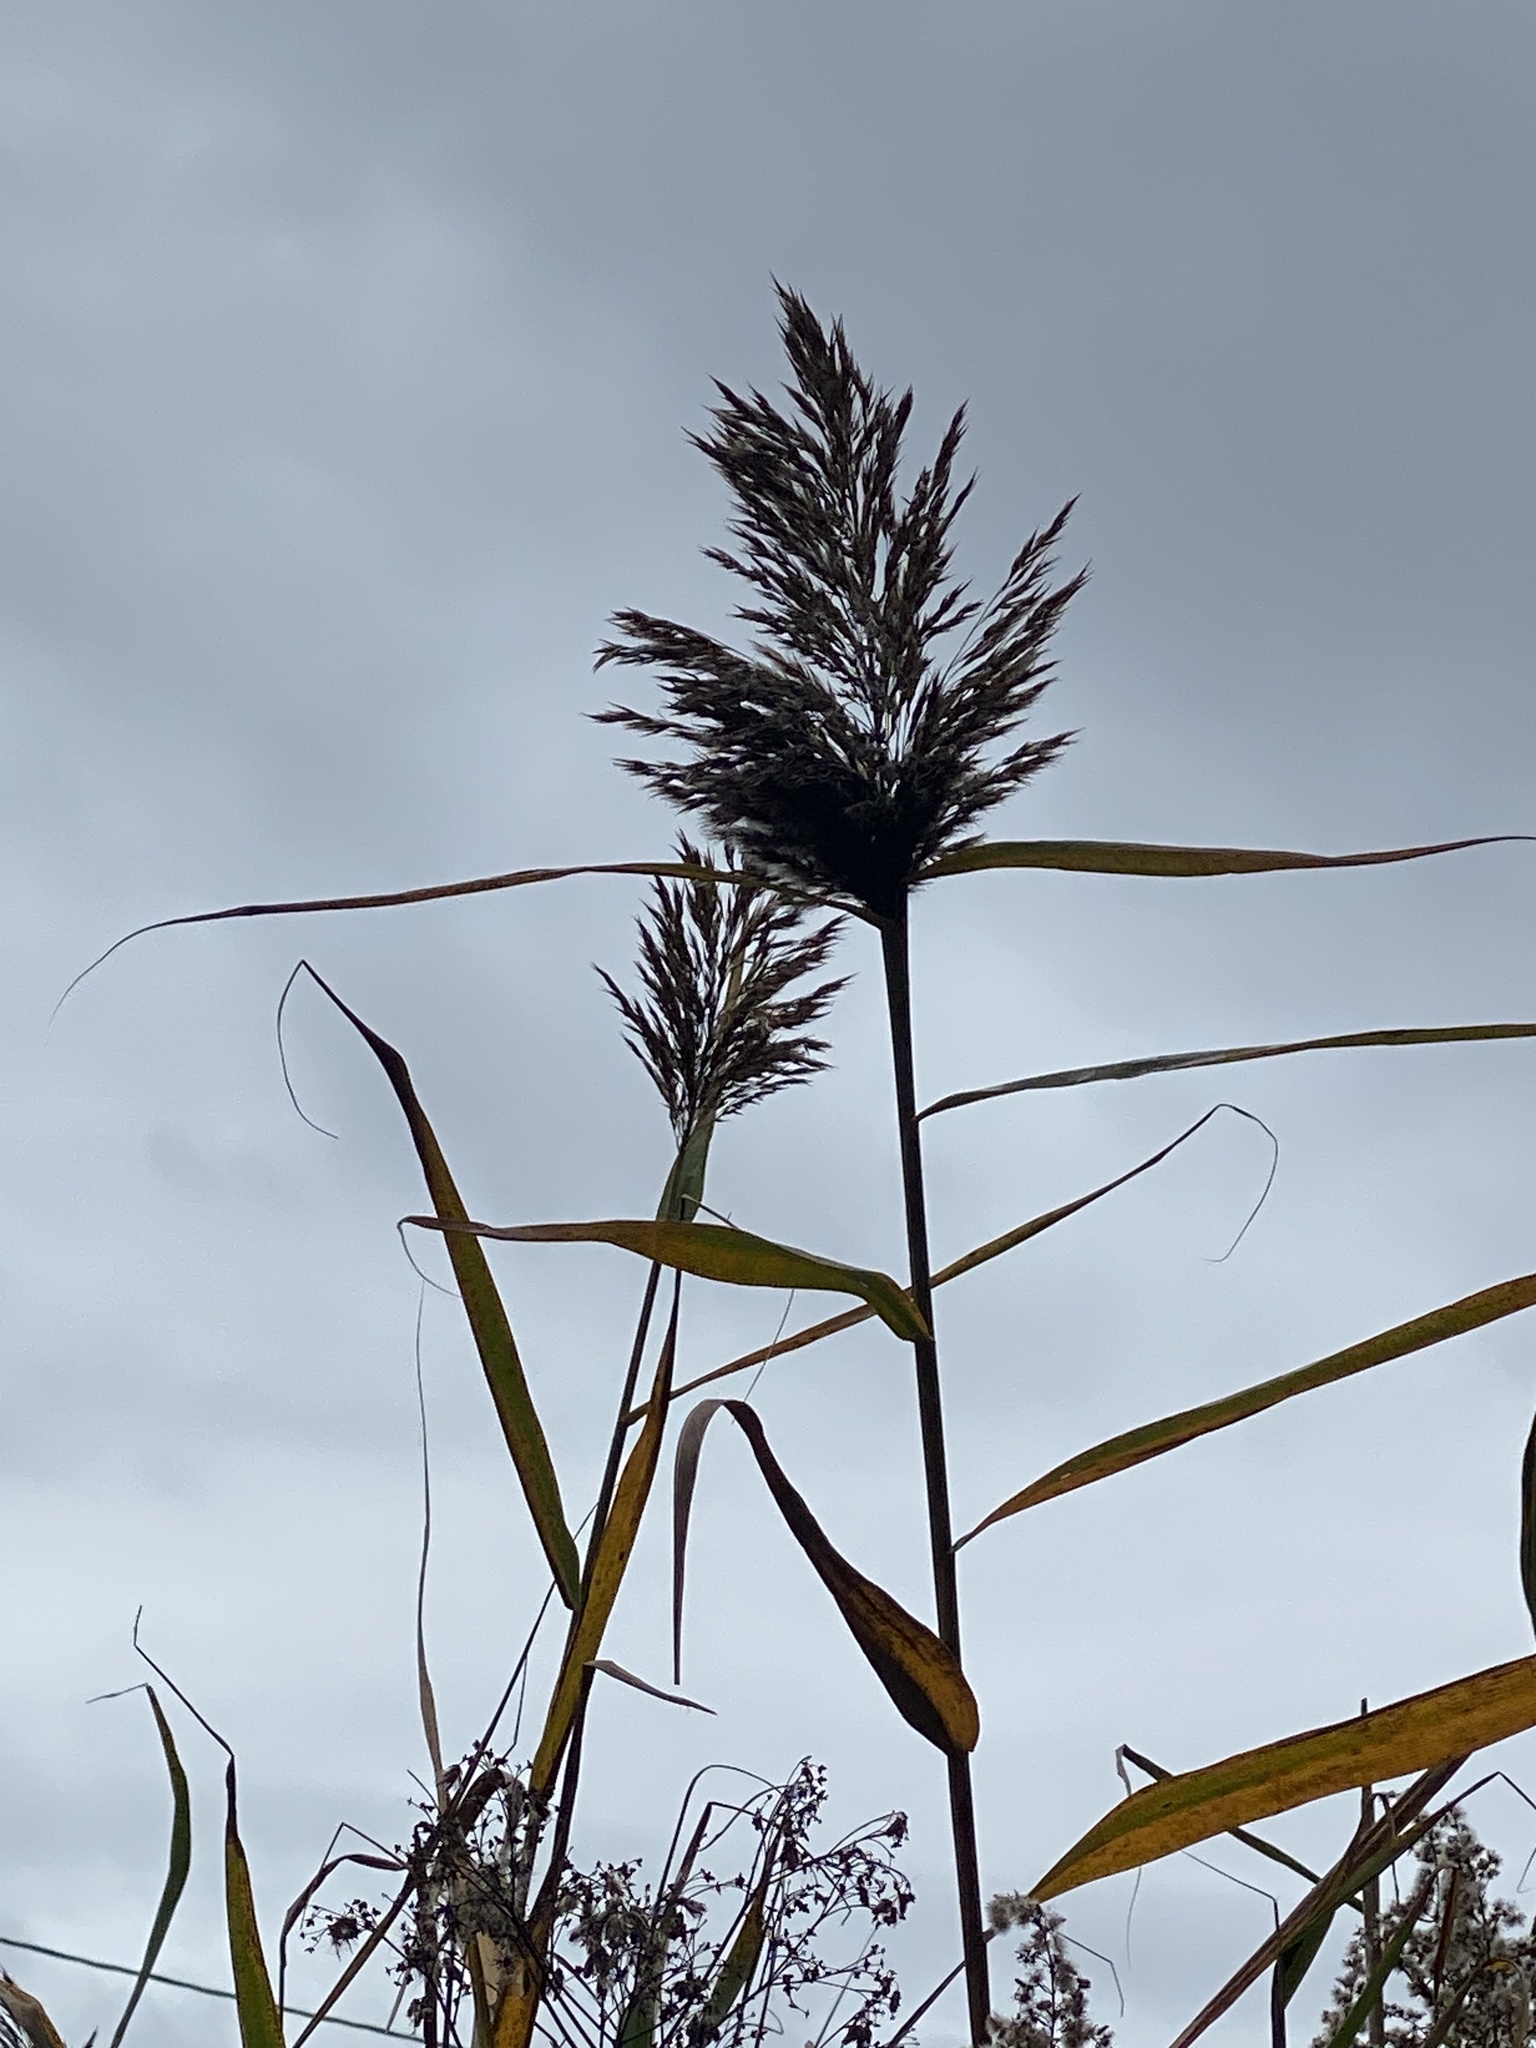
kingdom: Plantae
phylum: Tracheophyta
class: Liliopsida
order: Poales
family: Poaceae
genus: Phragmites
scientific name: Phragmites australis
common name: Common reed
